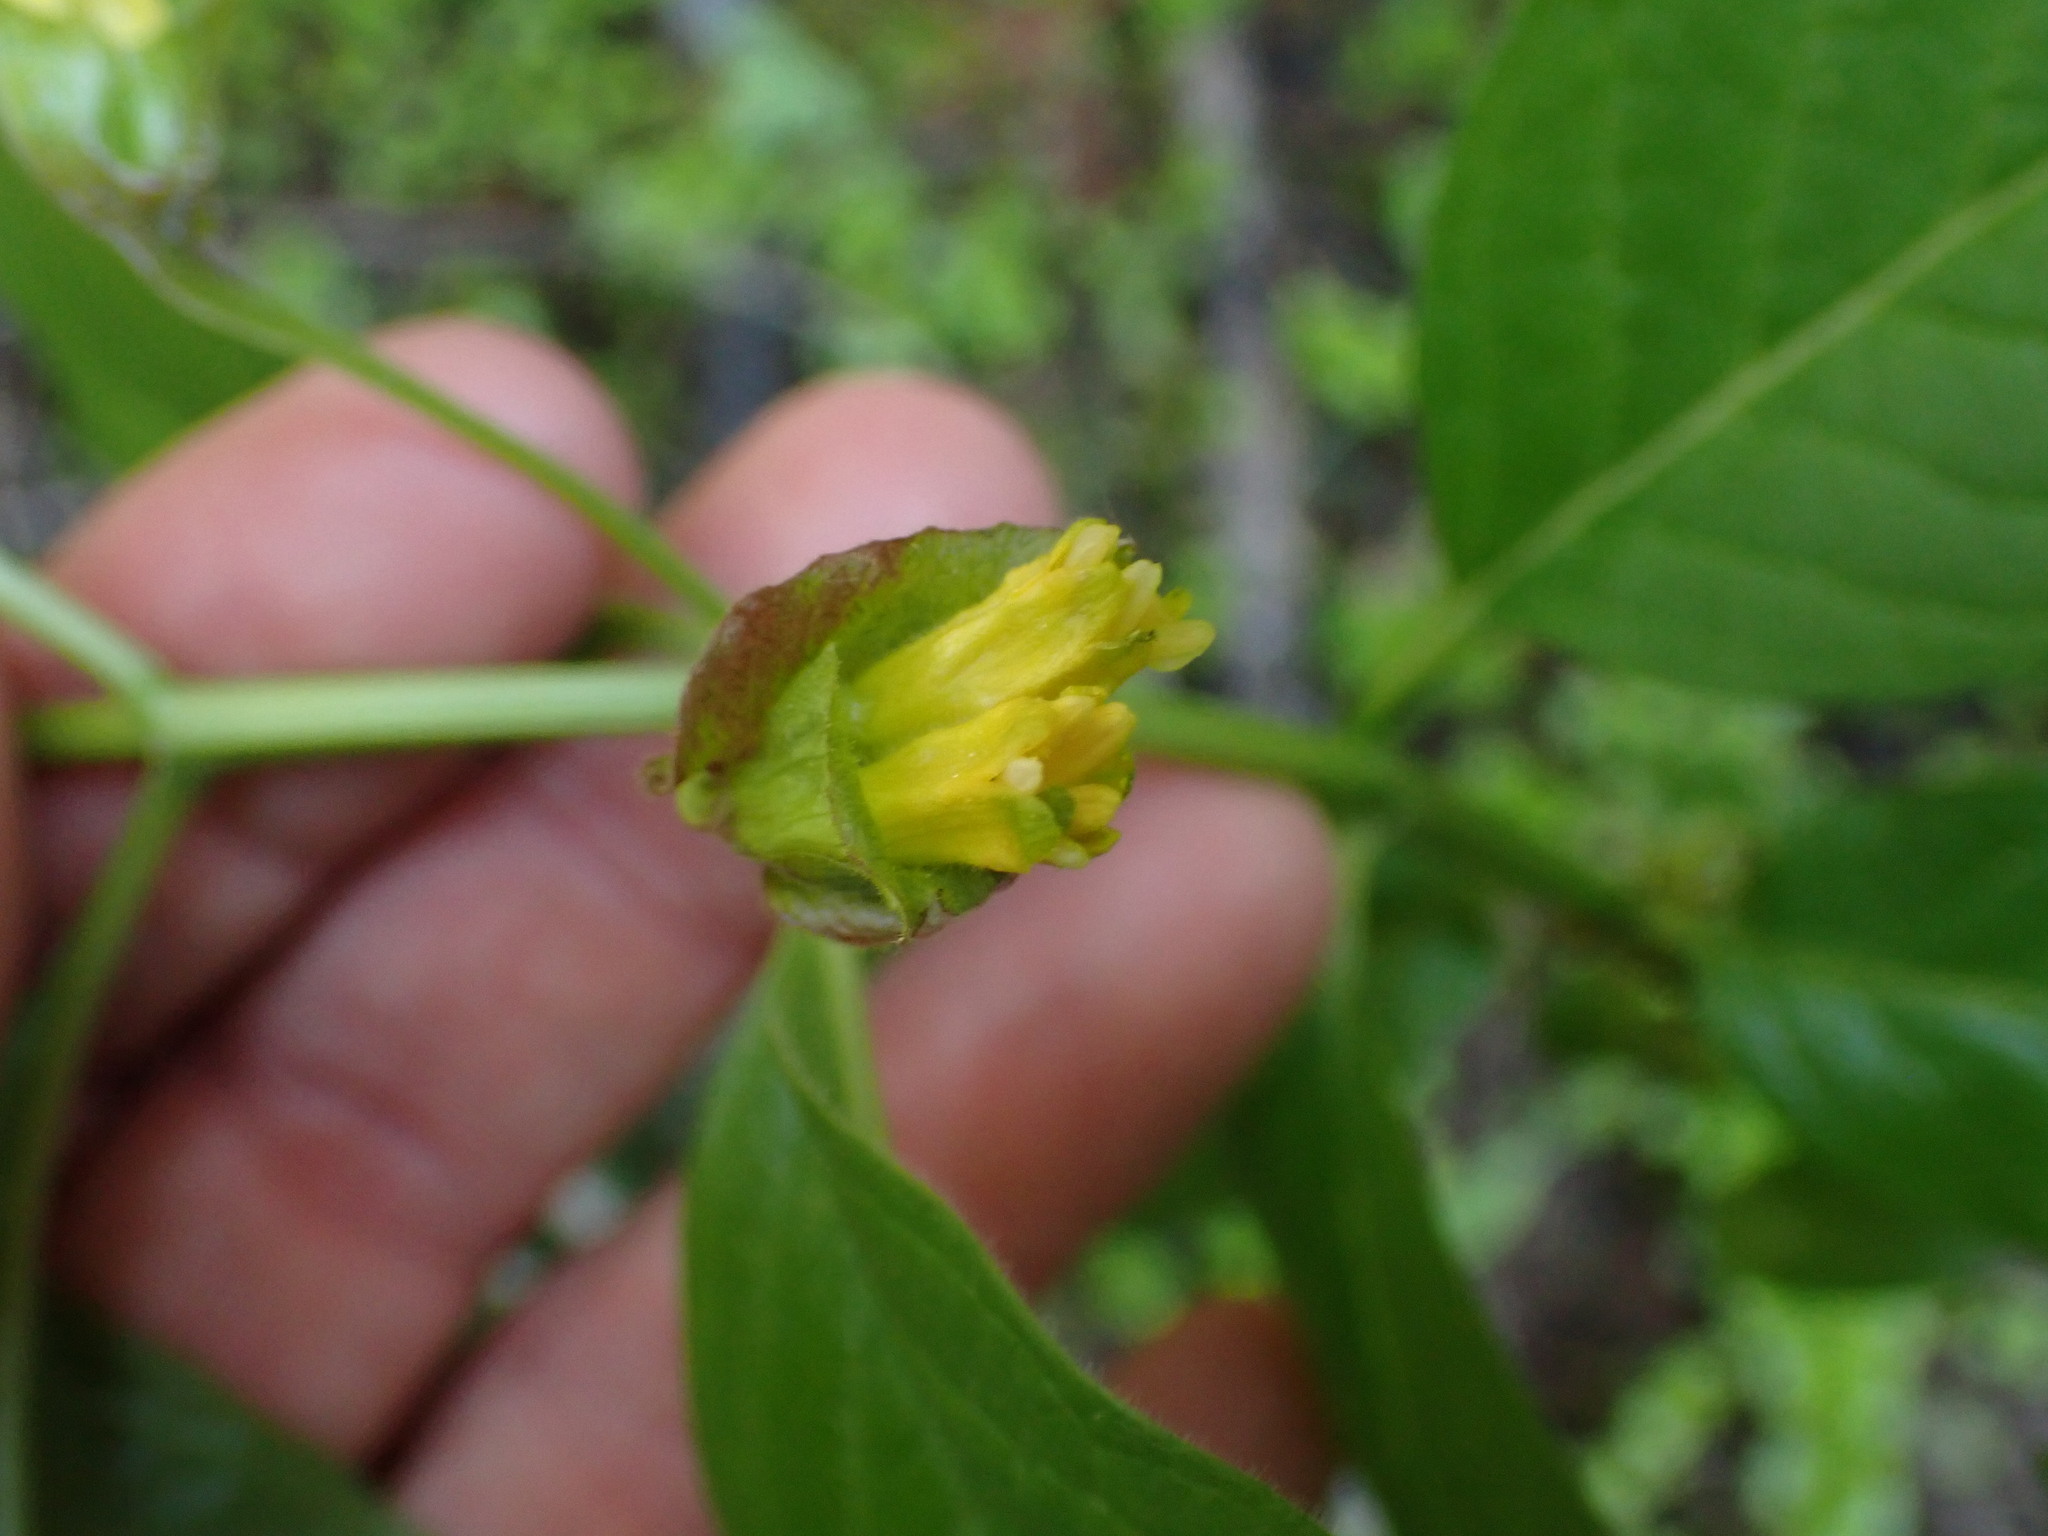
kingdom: Plantae
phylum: Tracheophyta
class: Magnoliopsida
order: Dipsacales
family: Caprifoliaceae
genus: Lonicera
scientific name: Lonicera involucrata
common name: Californian honeysuckle
